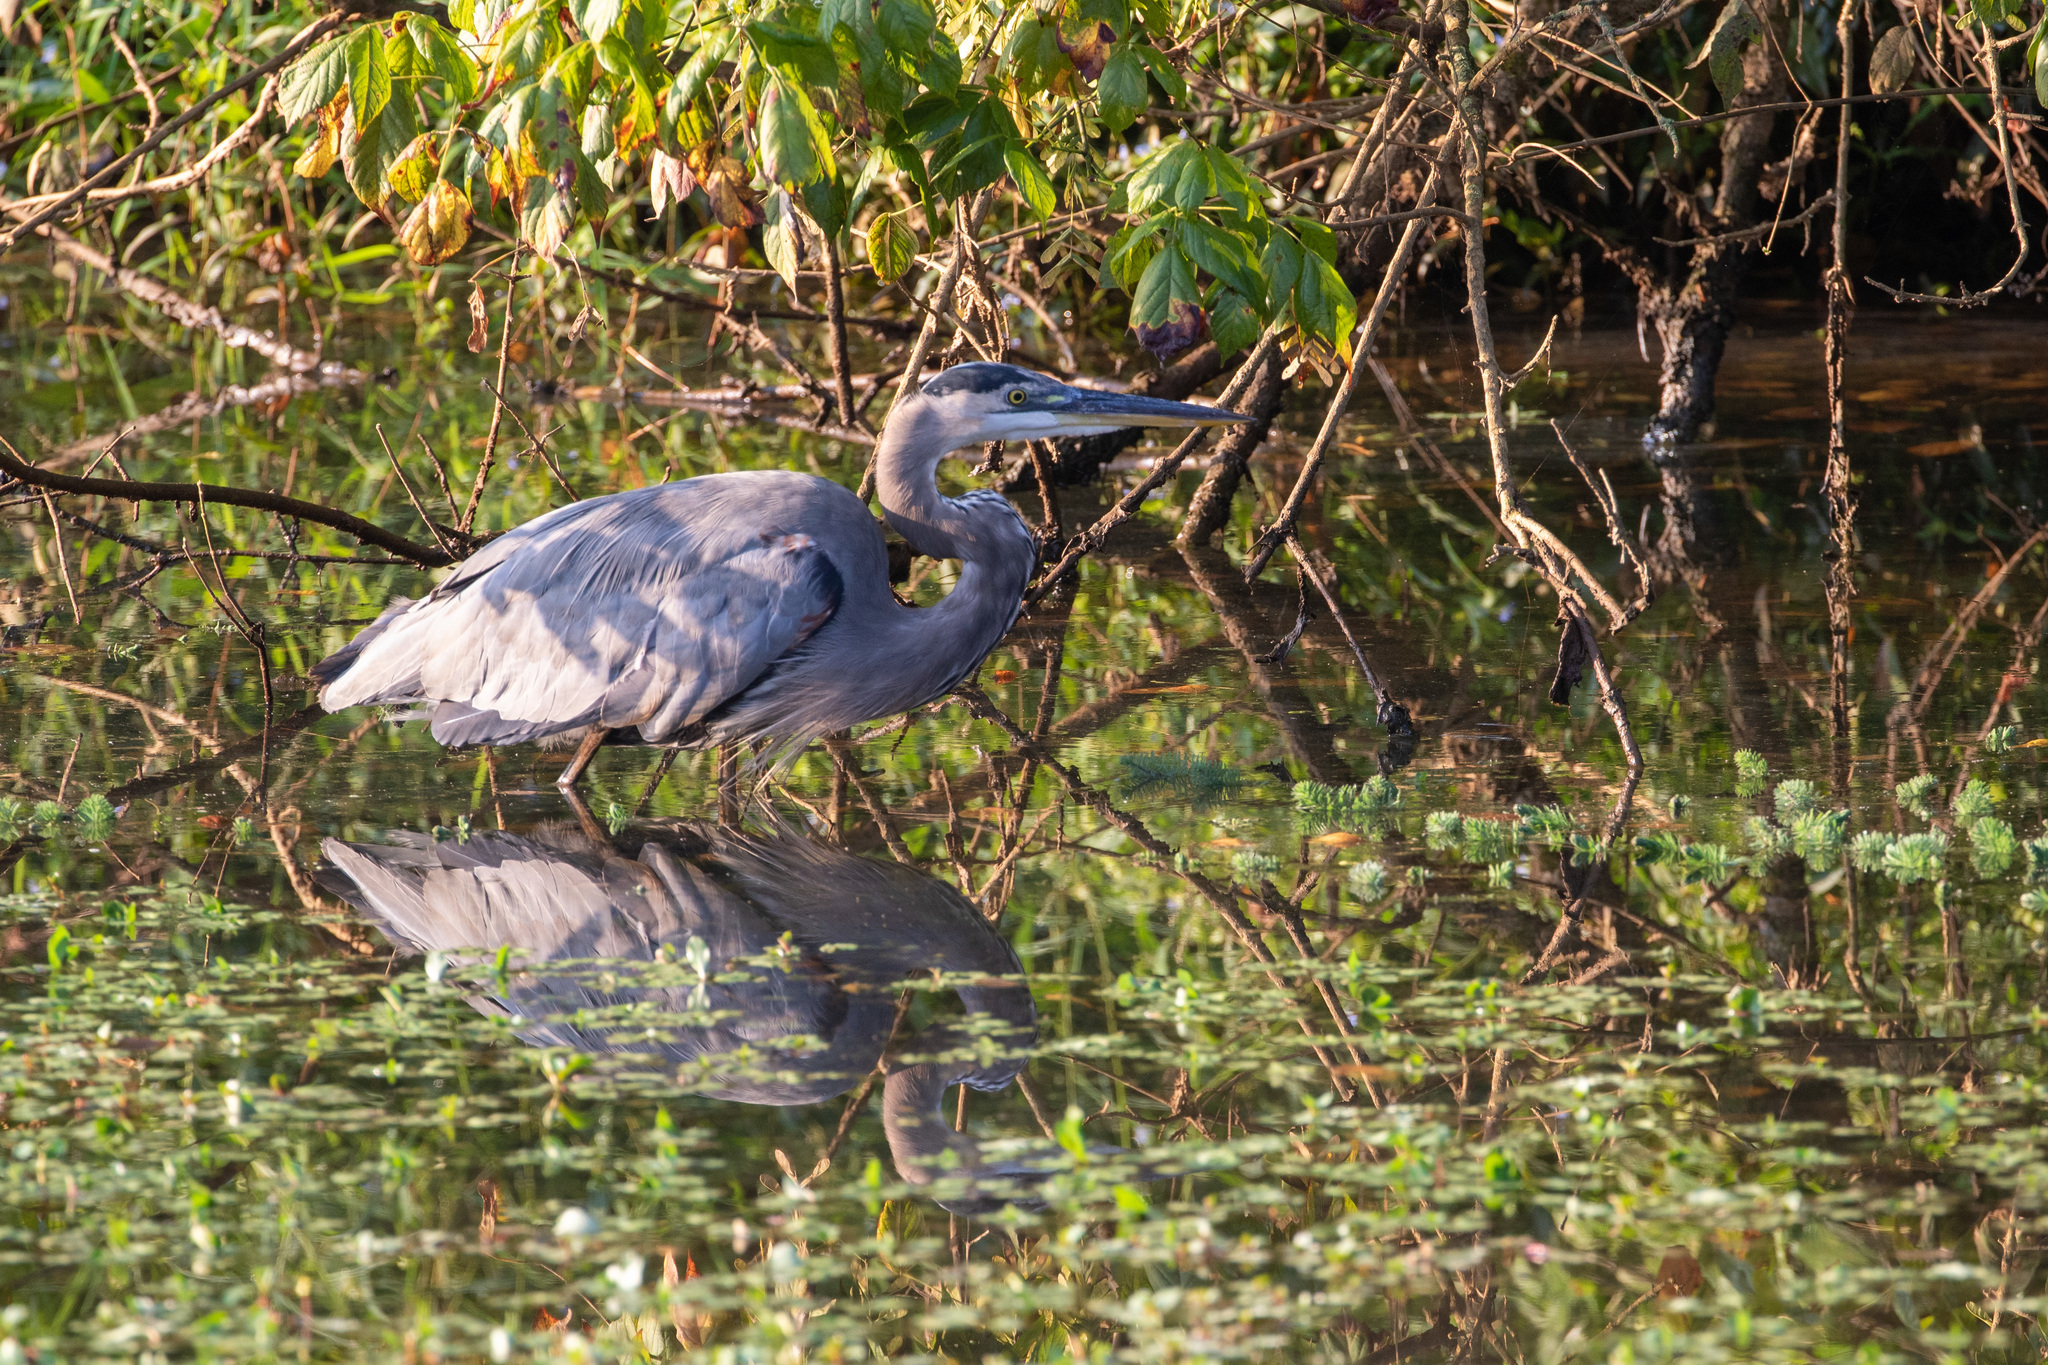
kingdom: Animalia
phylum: Chordata
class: Aves
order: Pelecaniformes
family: Ardeidae
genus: Ardea
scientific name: Ardea herodias
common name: Great blue heron
